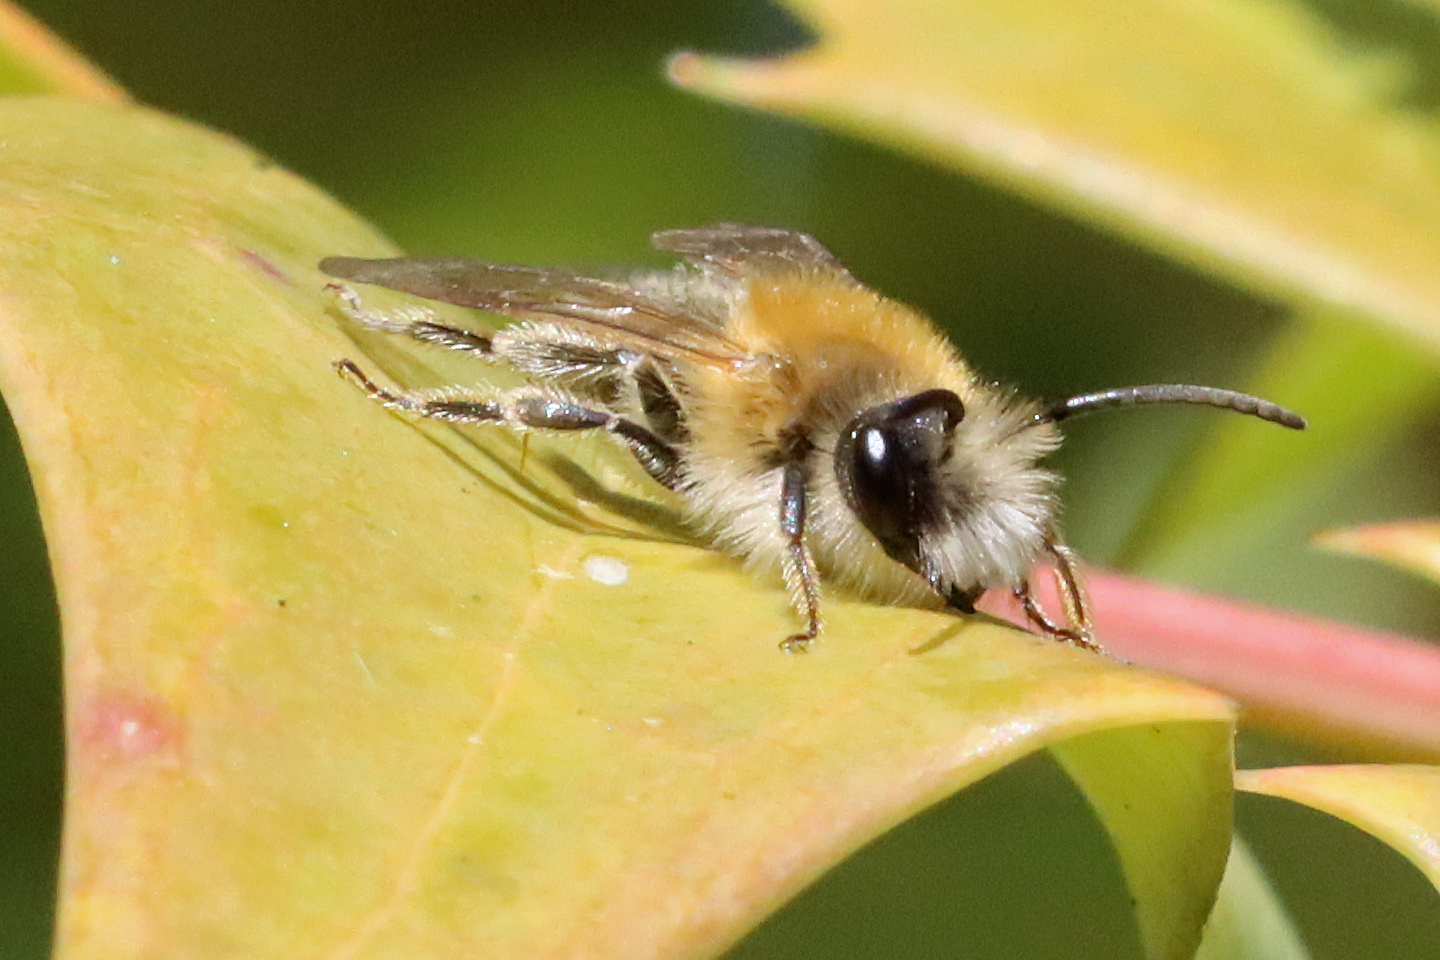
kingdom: Animalia
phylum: Arthropoda
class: Insecta
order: Hymenoptera
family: Andrenidae
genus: Andrena
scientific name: Andrena fulva
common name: Tawny mining bee
